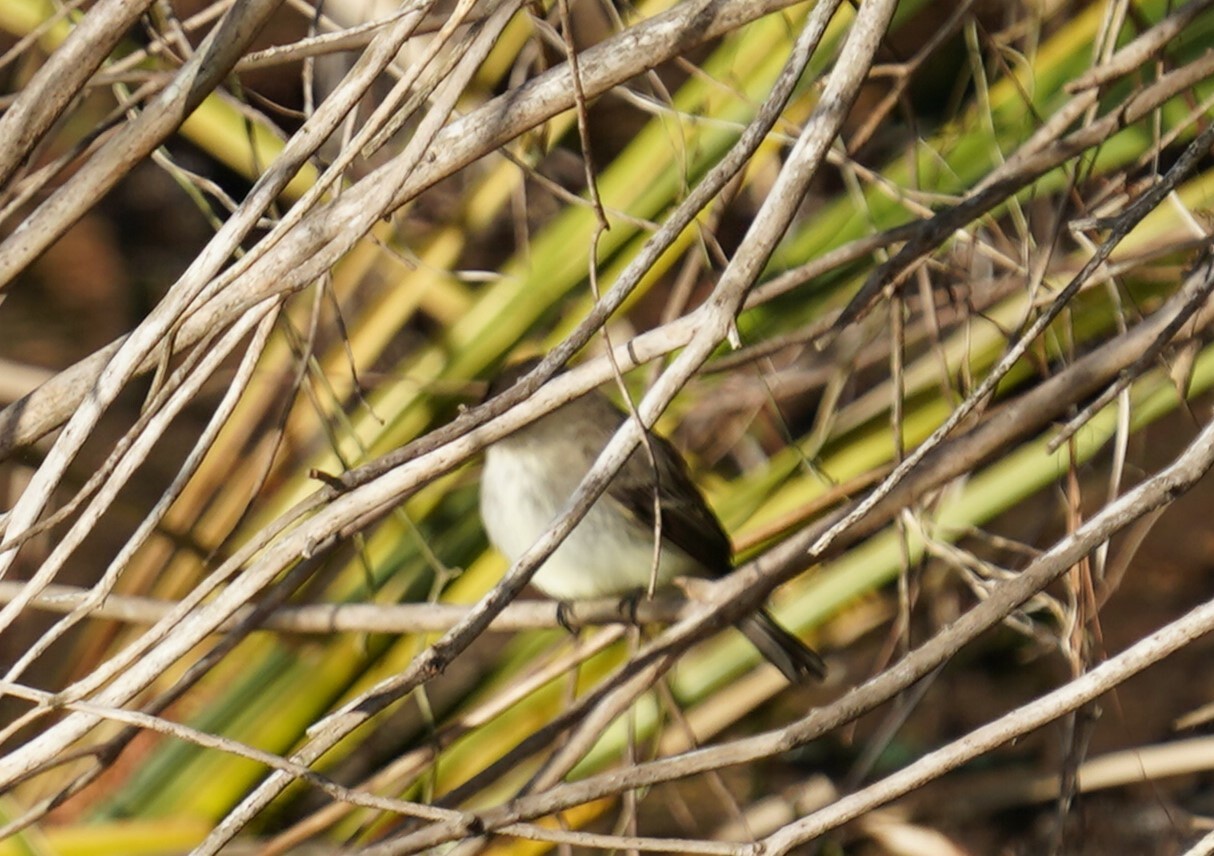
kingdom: Animalia
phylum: Chordata
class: Aves
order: Passeriformes
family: Tyrannidae
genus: Sayornis
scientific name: Sayornis phoebe
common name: Eastern phoebe
